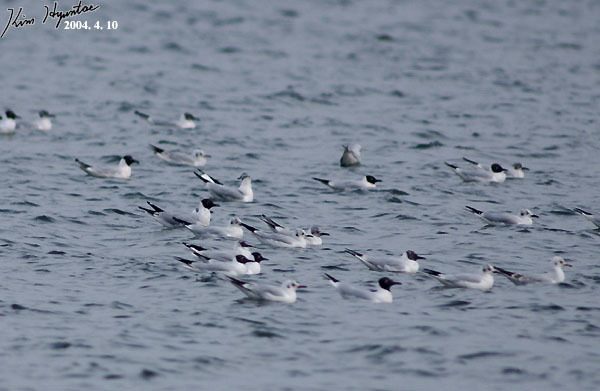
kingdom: Animalia
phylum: Chordata
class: Aves
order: Charadriiformes
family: Laridae
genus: Chroicocephalus
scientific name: Chroicocephalus ridibundus
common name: Black-headed gull
